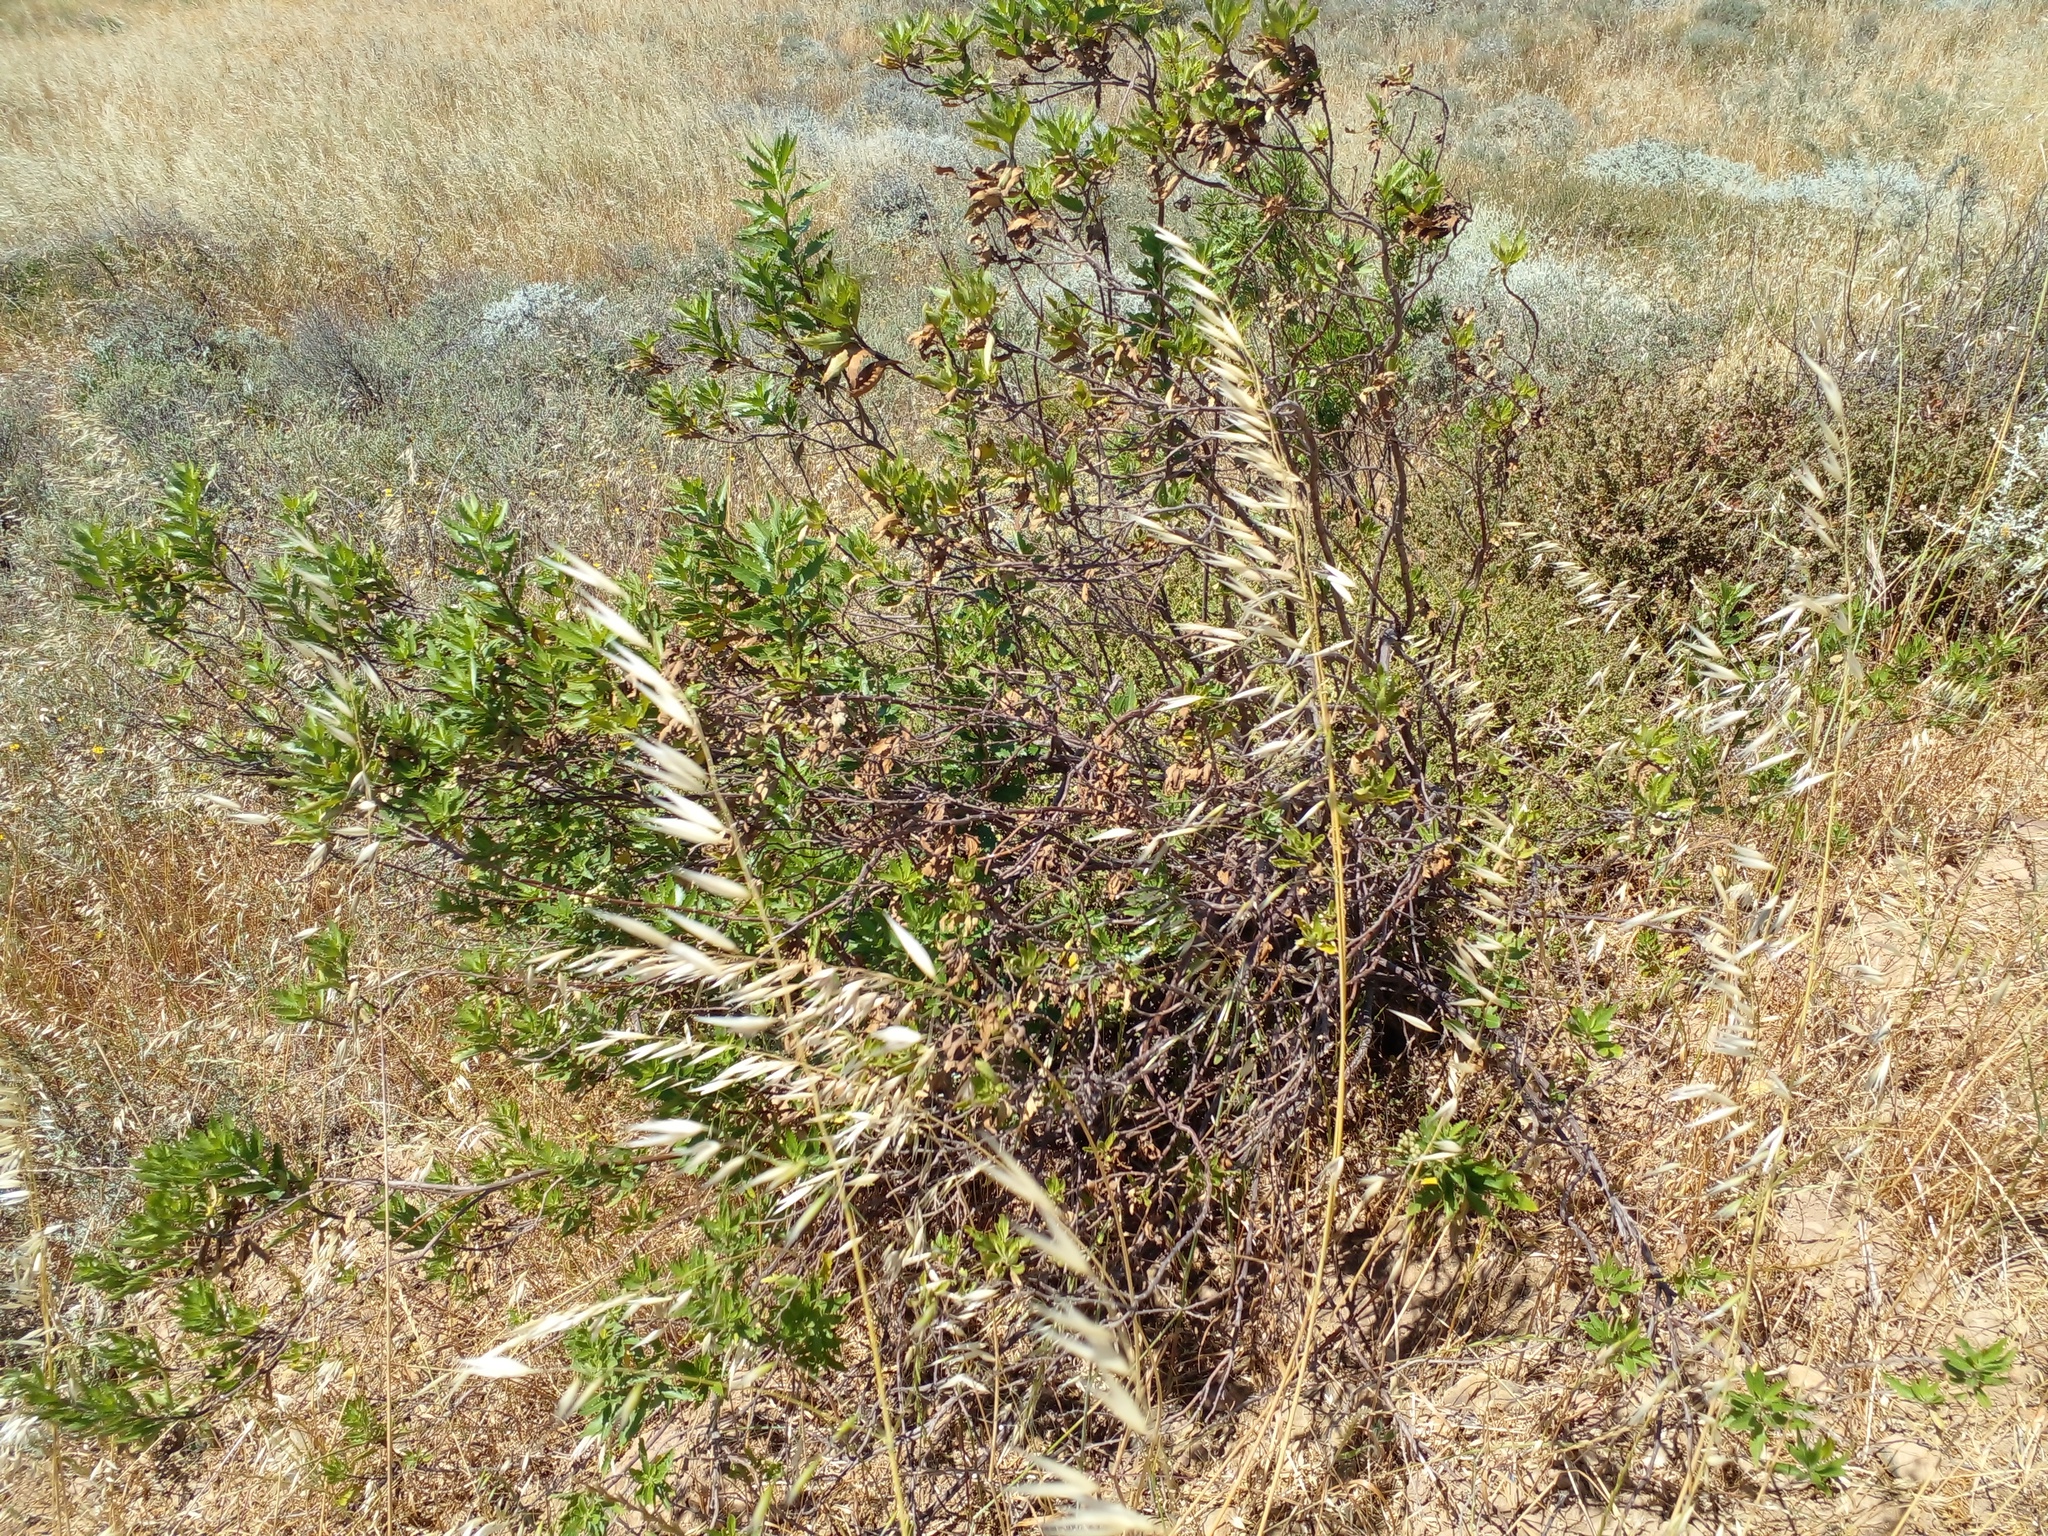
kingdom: Plantae
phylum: Tracheophyta
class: Magnoliopsida
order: Asterales
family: Asteraceae
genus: Nidorella
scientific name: Nidorella ivifolia
